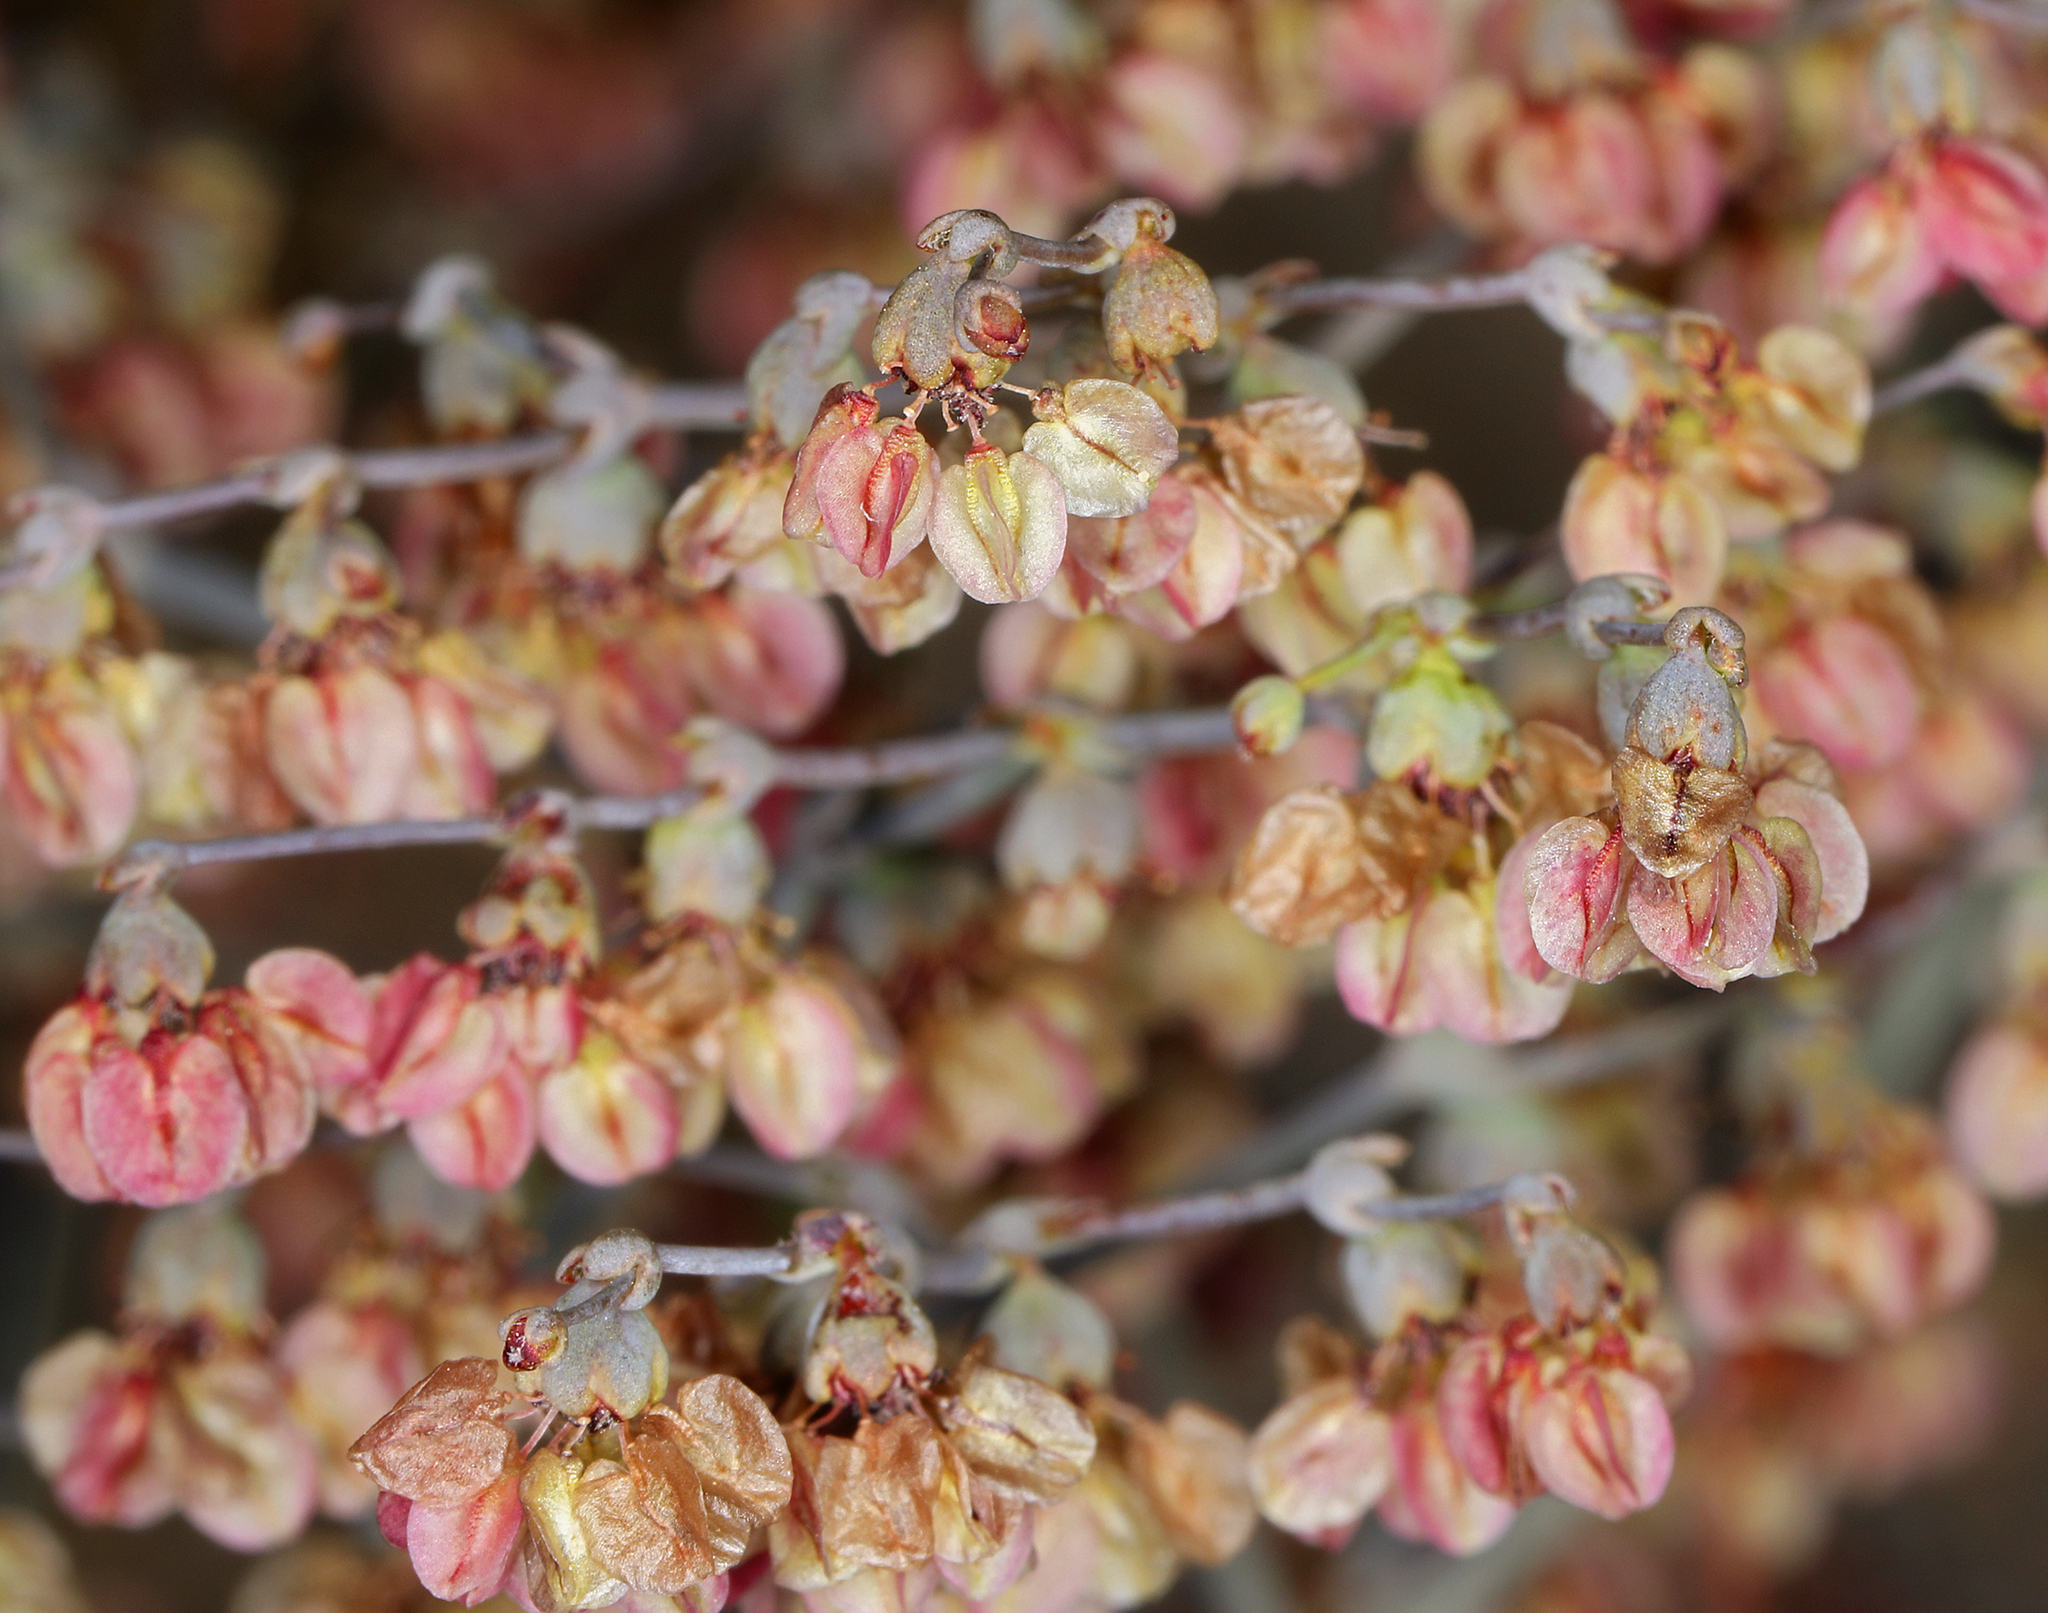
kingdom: Plantae
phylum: Tracheophyta
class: Magnoliopsida
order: Caryophyllales
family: Polygonaceae
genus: Eriogonum
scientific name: Eriogonum hookeri
